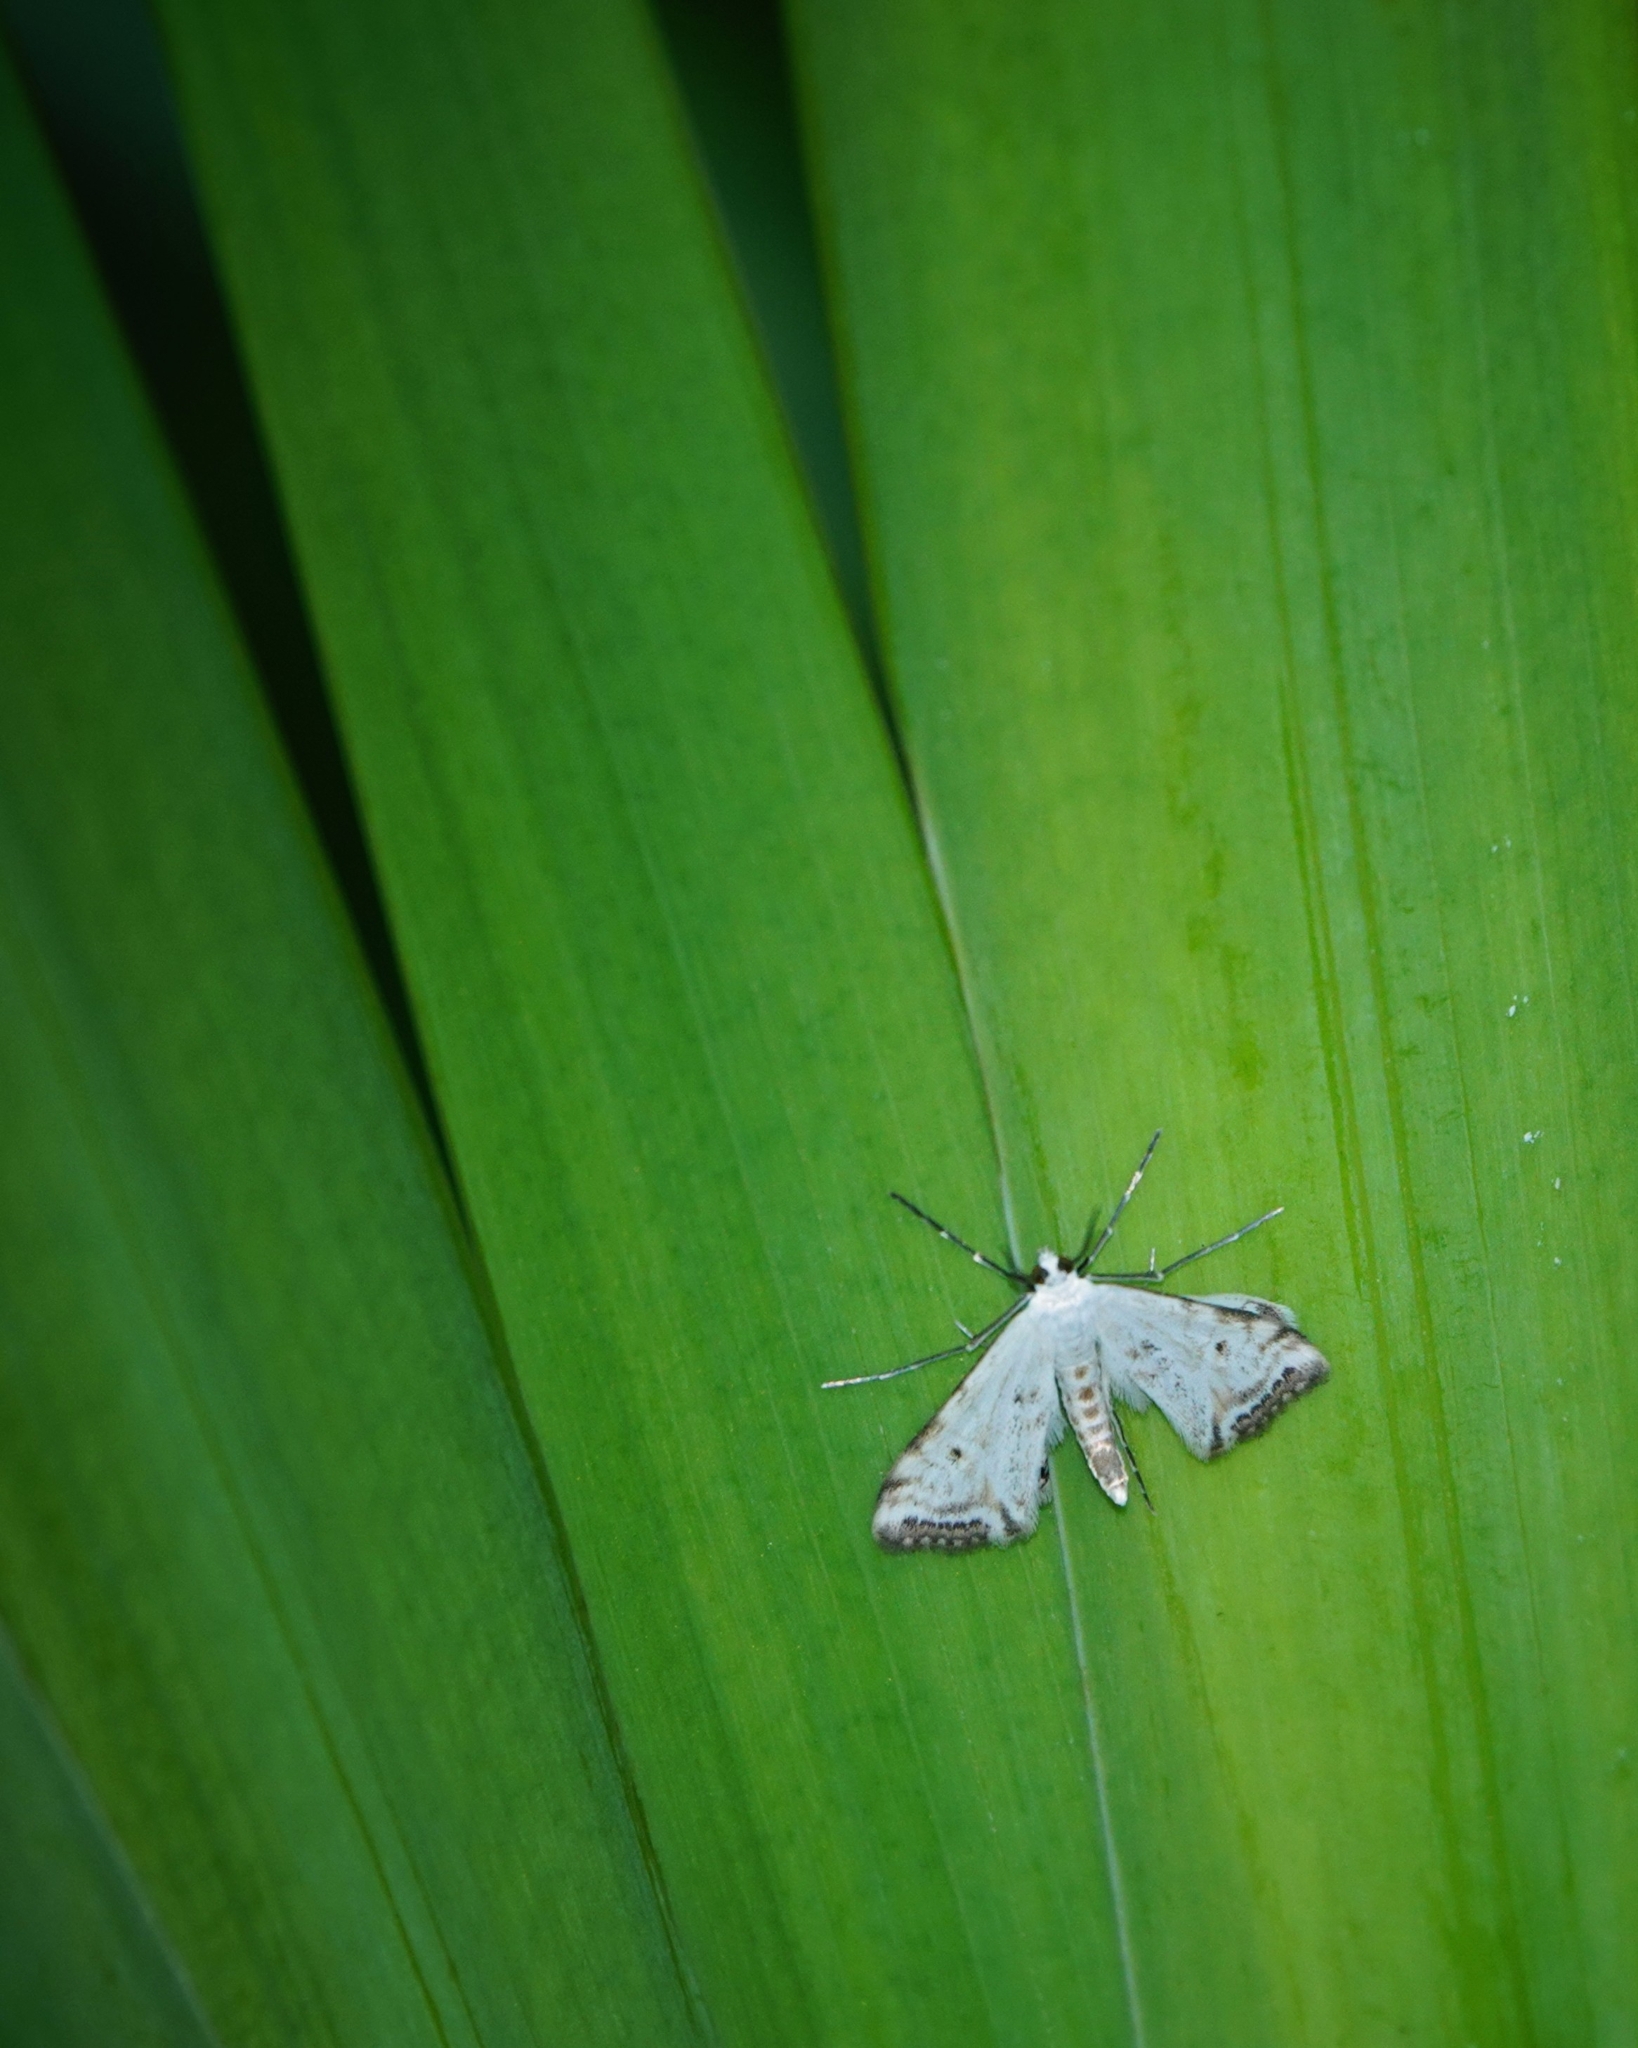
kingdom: Animalia
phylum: Arthropoda
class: Insecta
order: Lepidoptera
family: Crambidae
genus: Cataclysta
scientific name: Cataclysta lemnata
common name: Small china-mark
